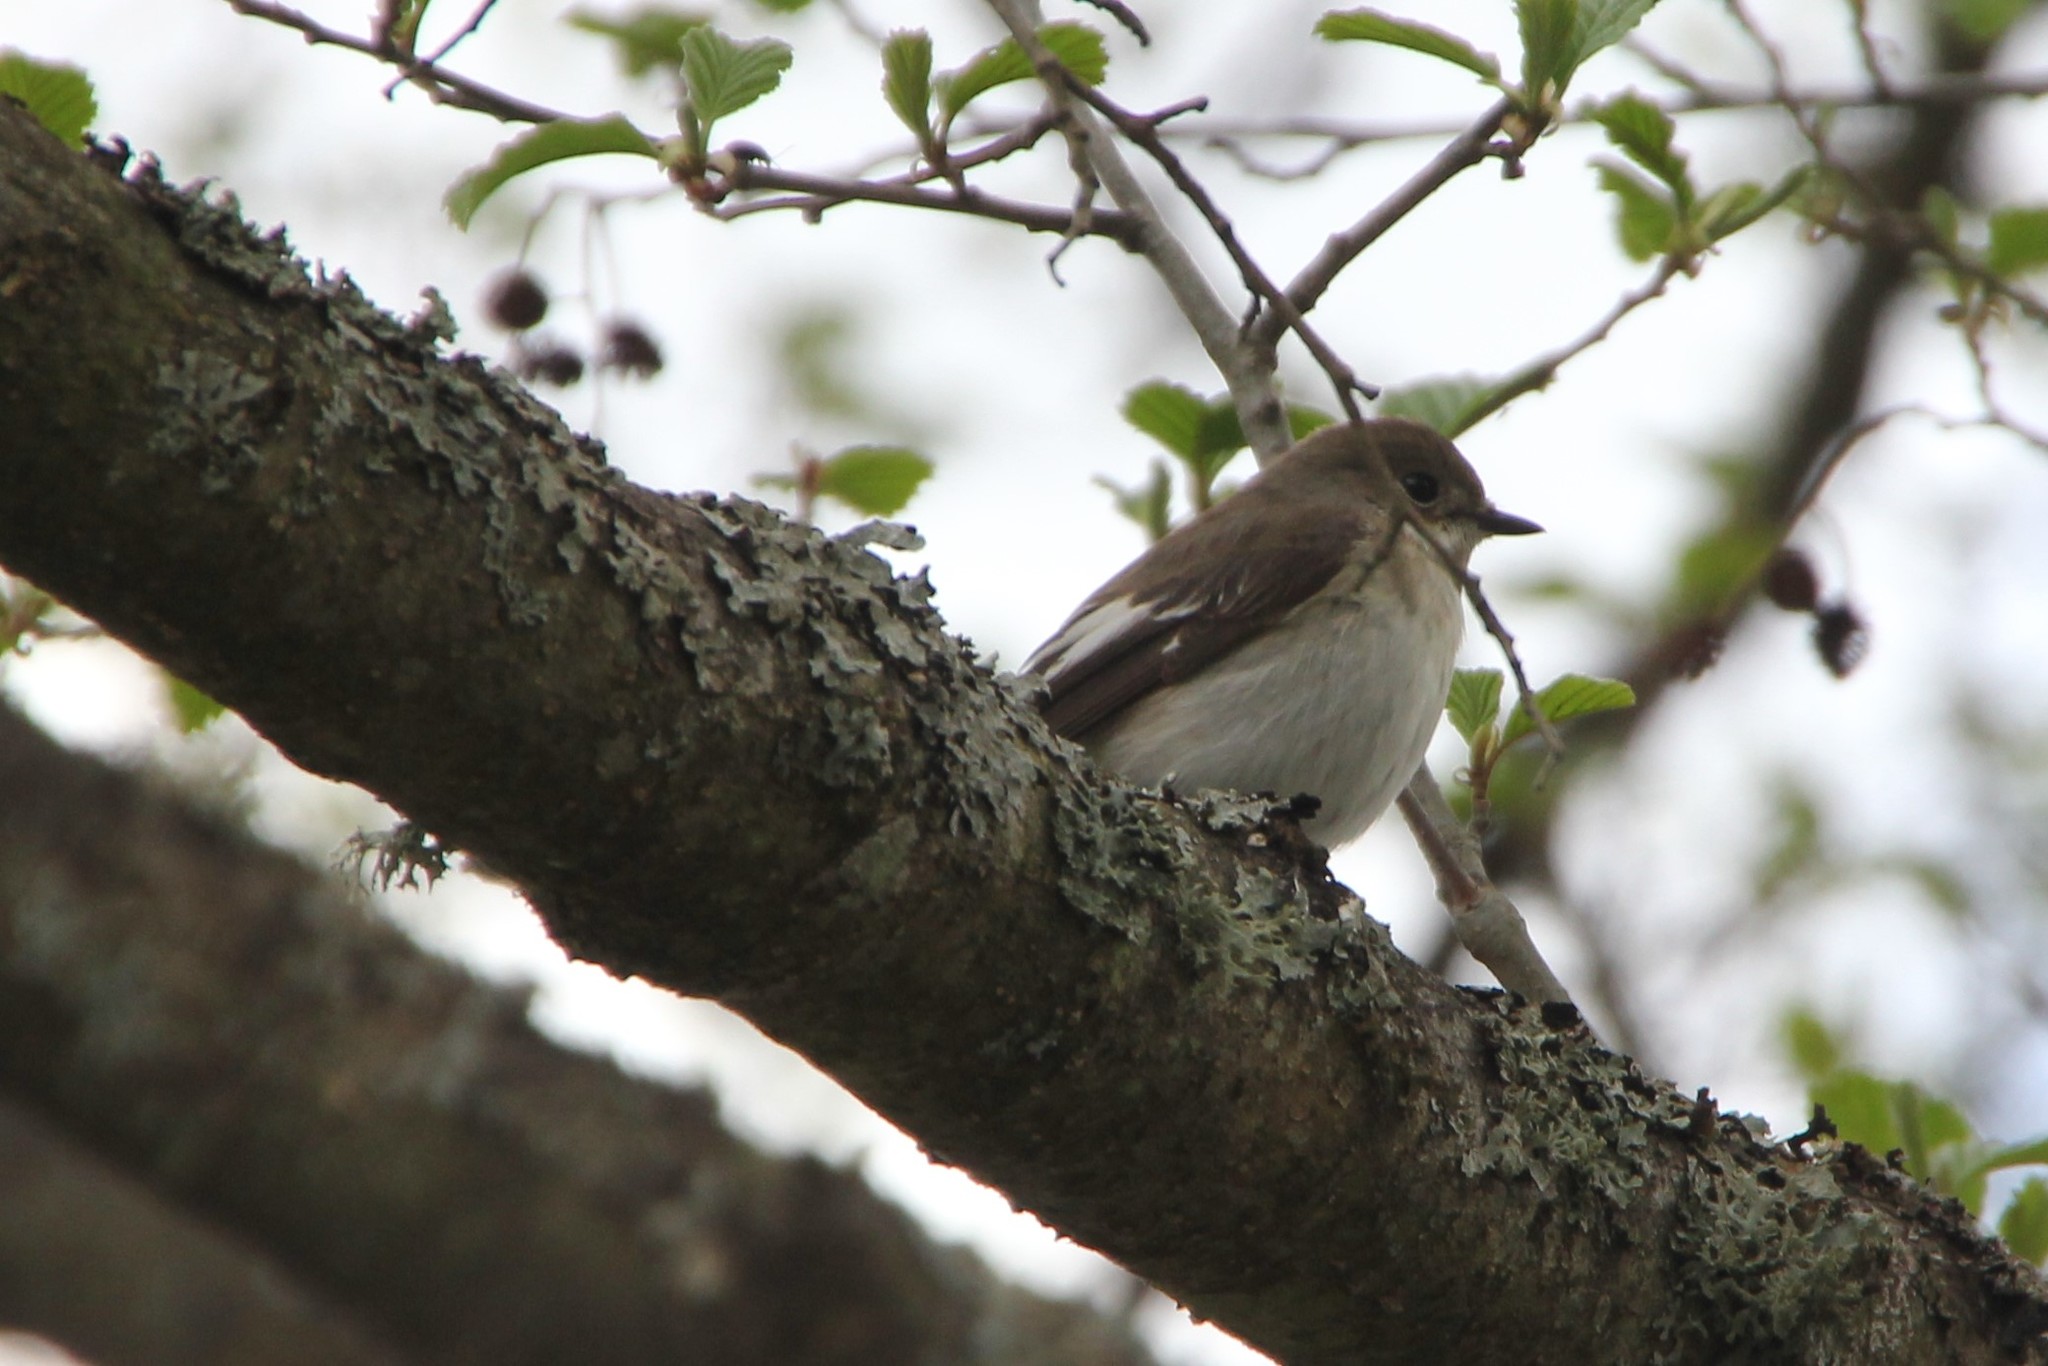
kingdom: Animalia
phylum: Chordata
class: Aves
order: Passeriformes
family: Muscicapidae
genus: Ficedula
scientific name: Ficedula hypoleuca
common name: European pied flycatcher
